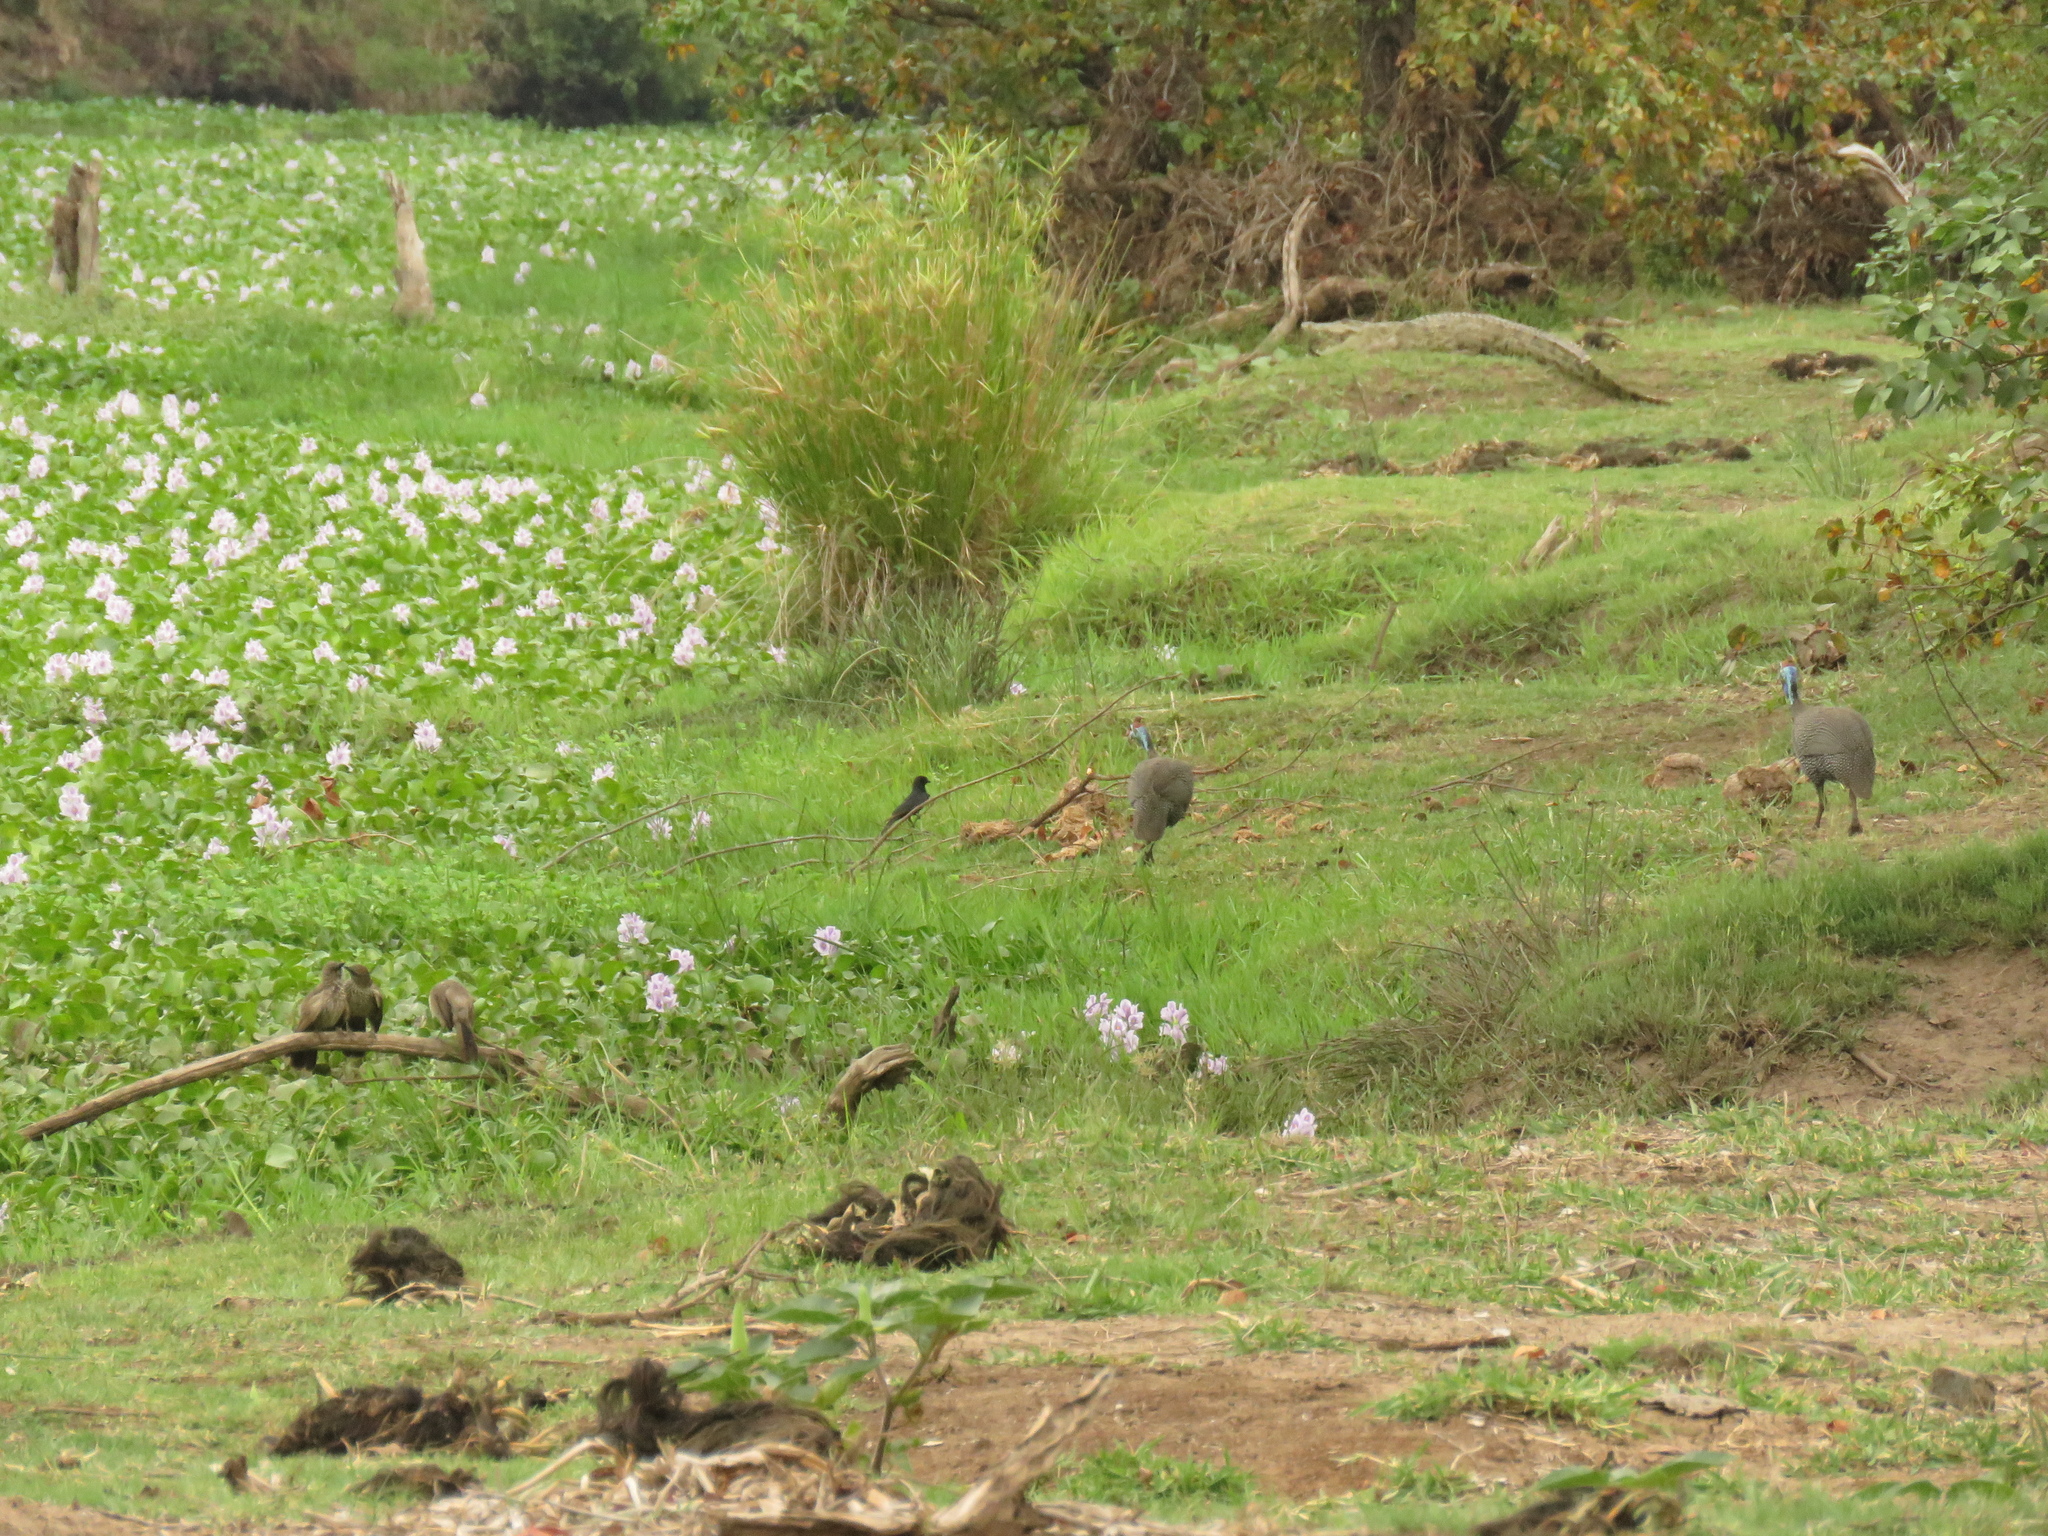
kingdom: Animalia
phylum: Chordata
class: Aves
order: Galliformes
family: Numididae
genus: Numida
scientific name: Numida meleagris
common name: Helmeted guineafowl
